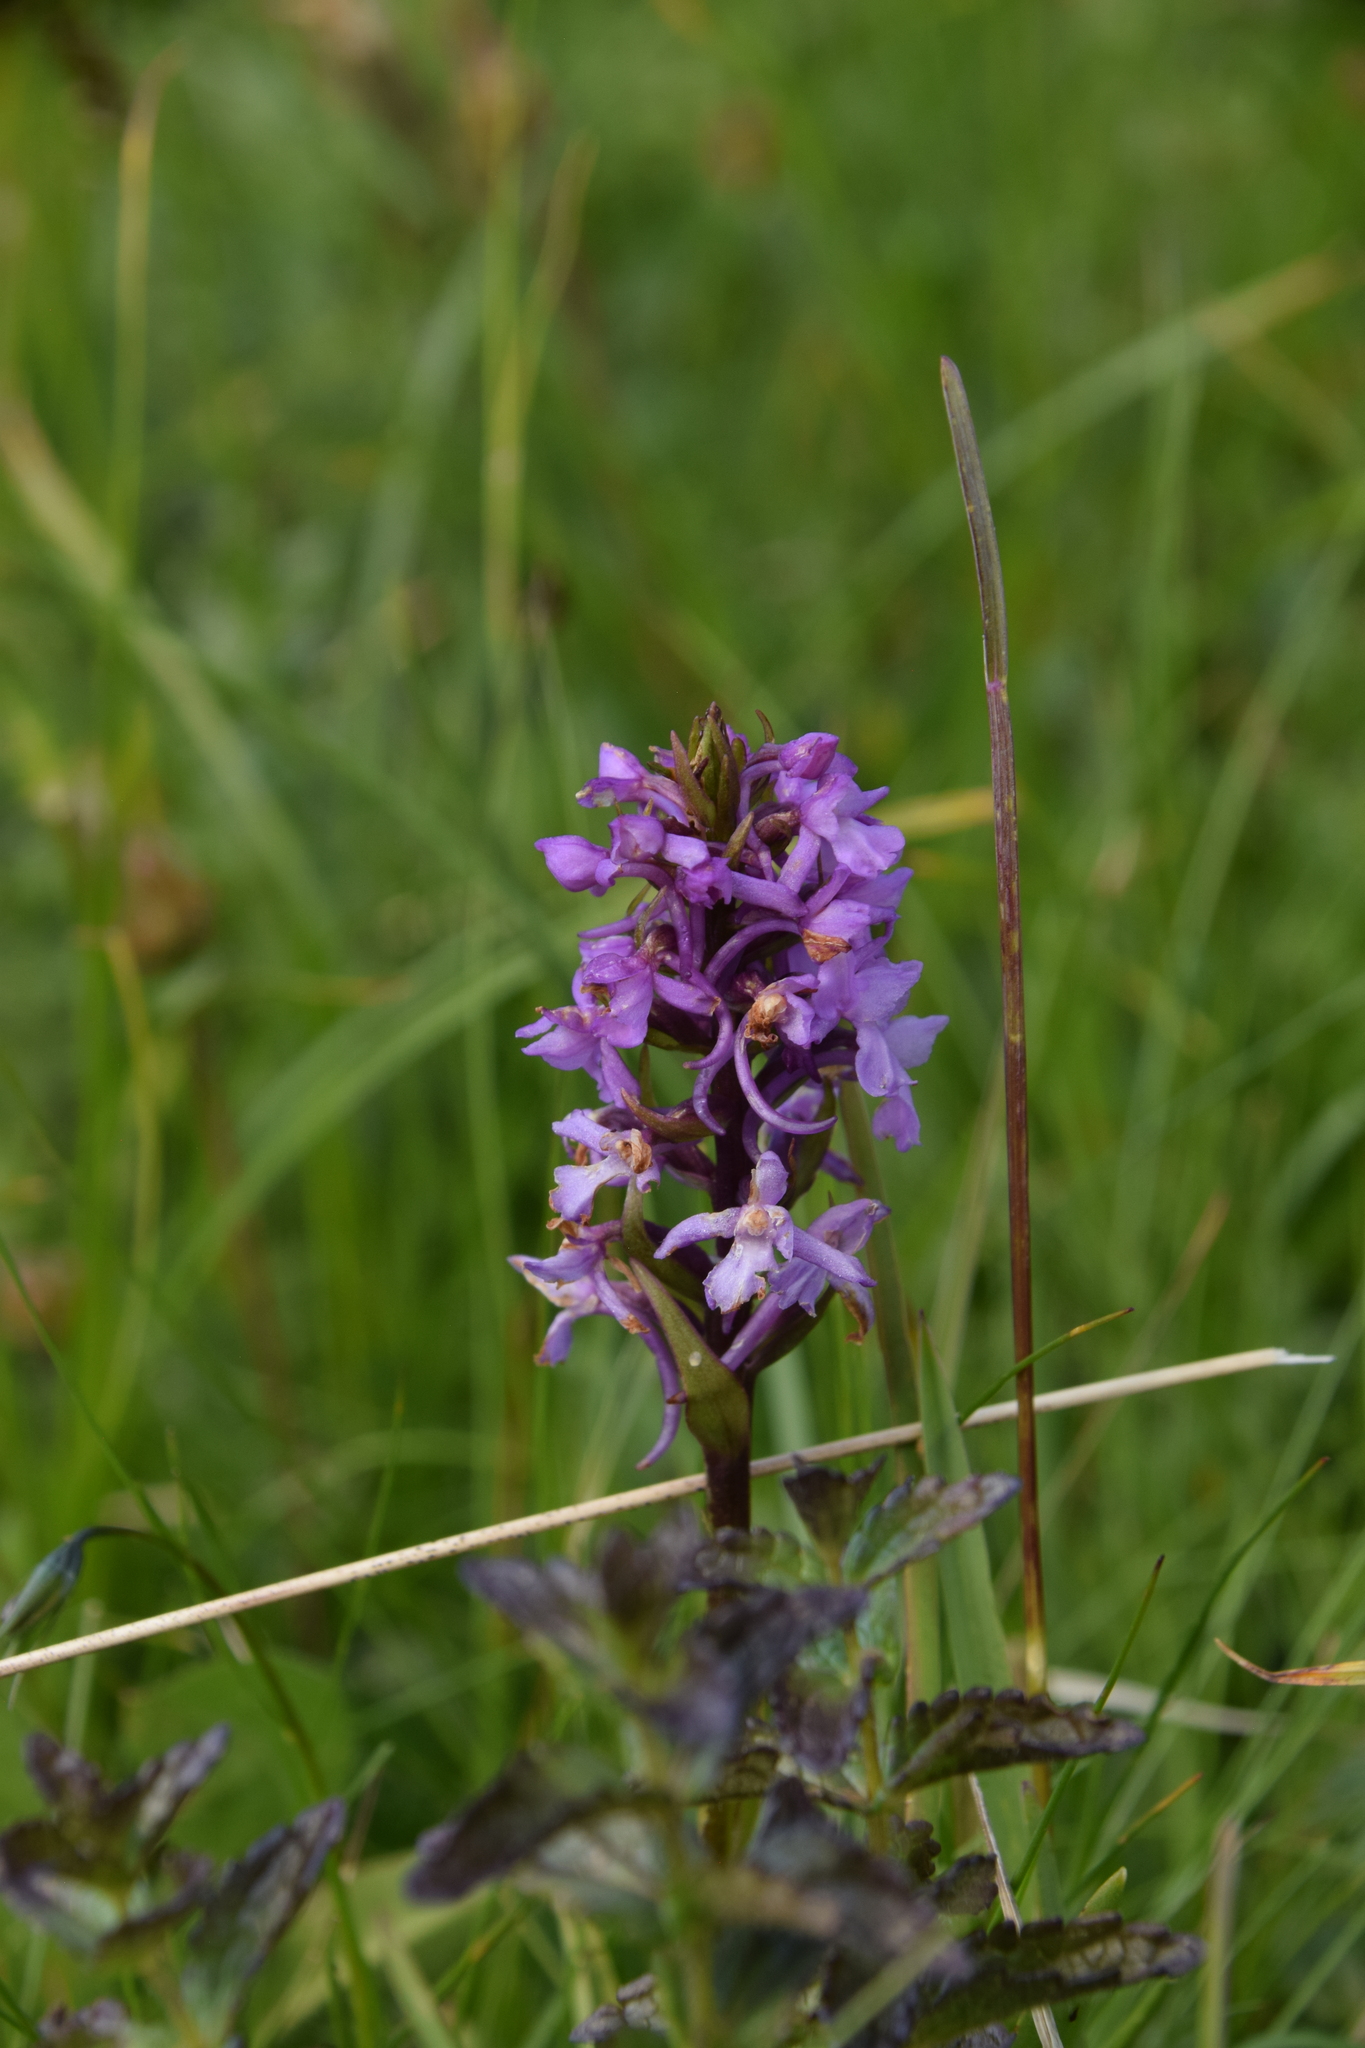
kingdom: Plantae
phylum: Tracheophyta
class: Liliopsida
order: Asparagales
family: Orchidaceae
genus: Gymnadenia
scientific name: Gymnadenia conopsea
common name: Fragrant orchid
